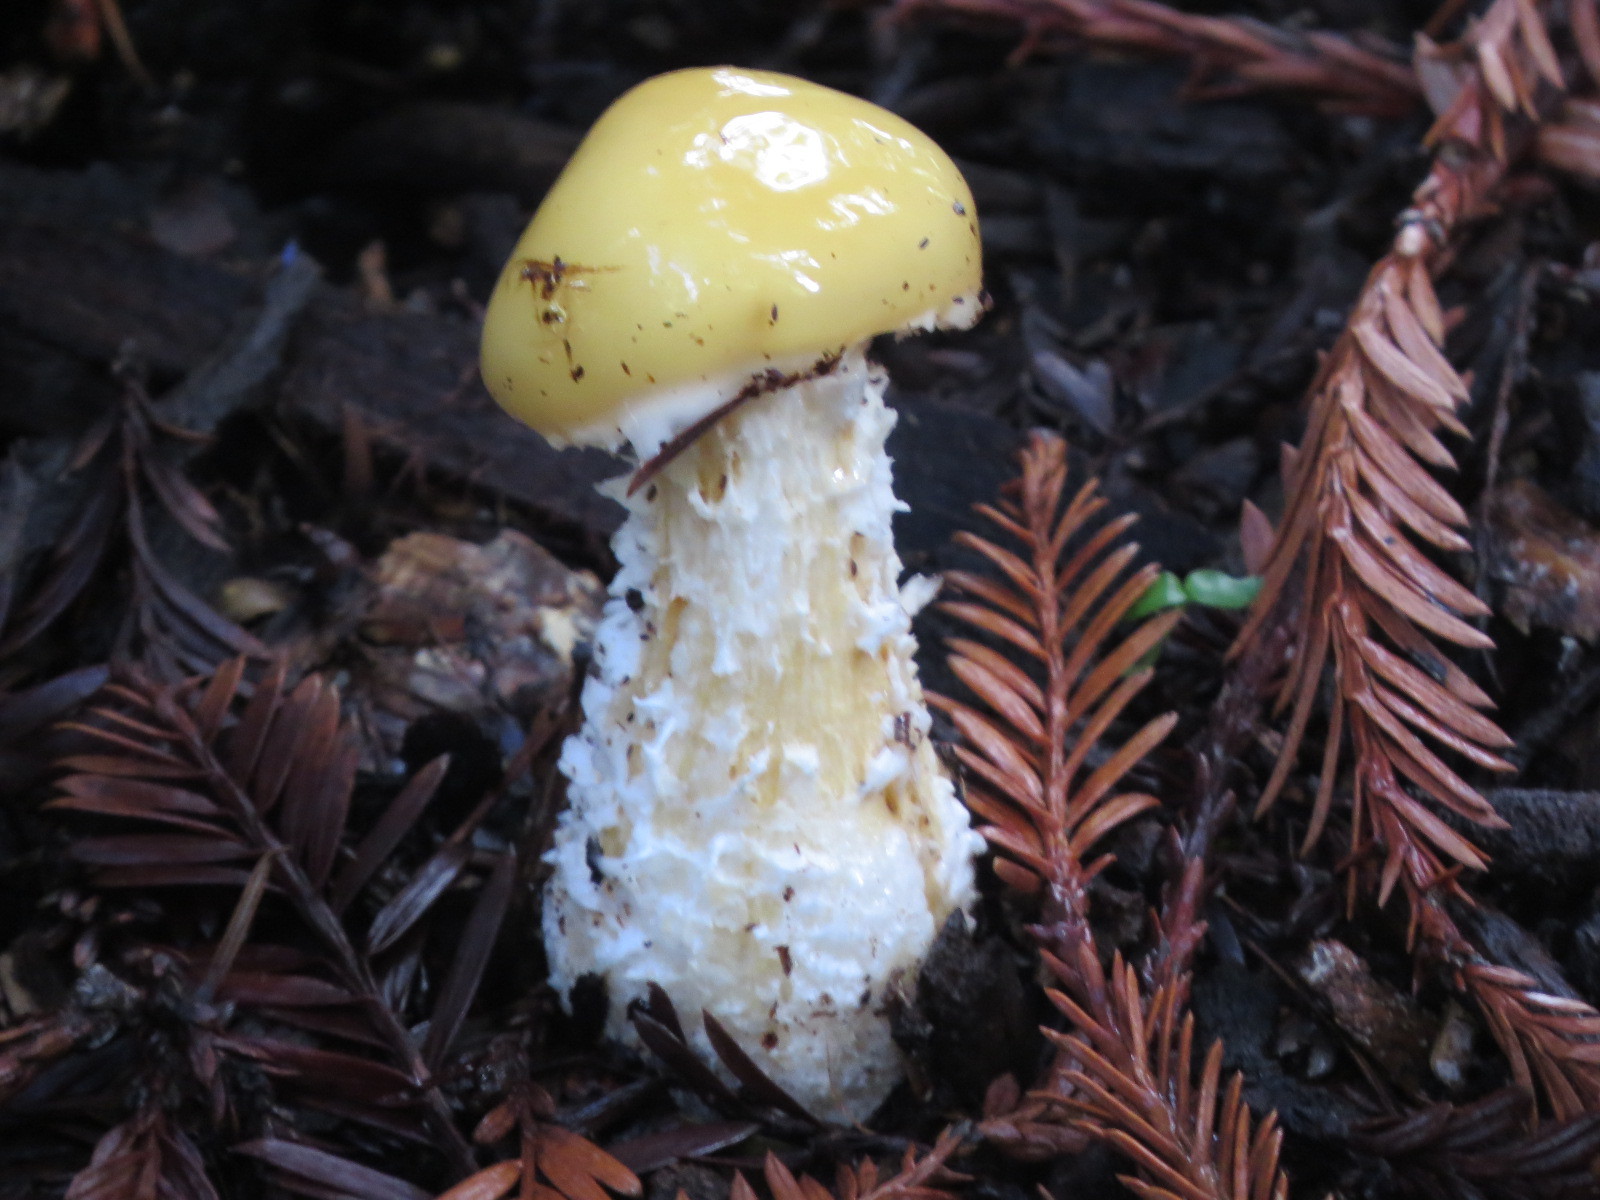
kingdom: Fungi
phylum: Basidiomycota
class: Agaricomycetes
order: Agaricales
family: Strophariaceae
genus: Stropharia
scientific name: Stropharia ambigua
